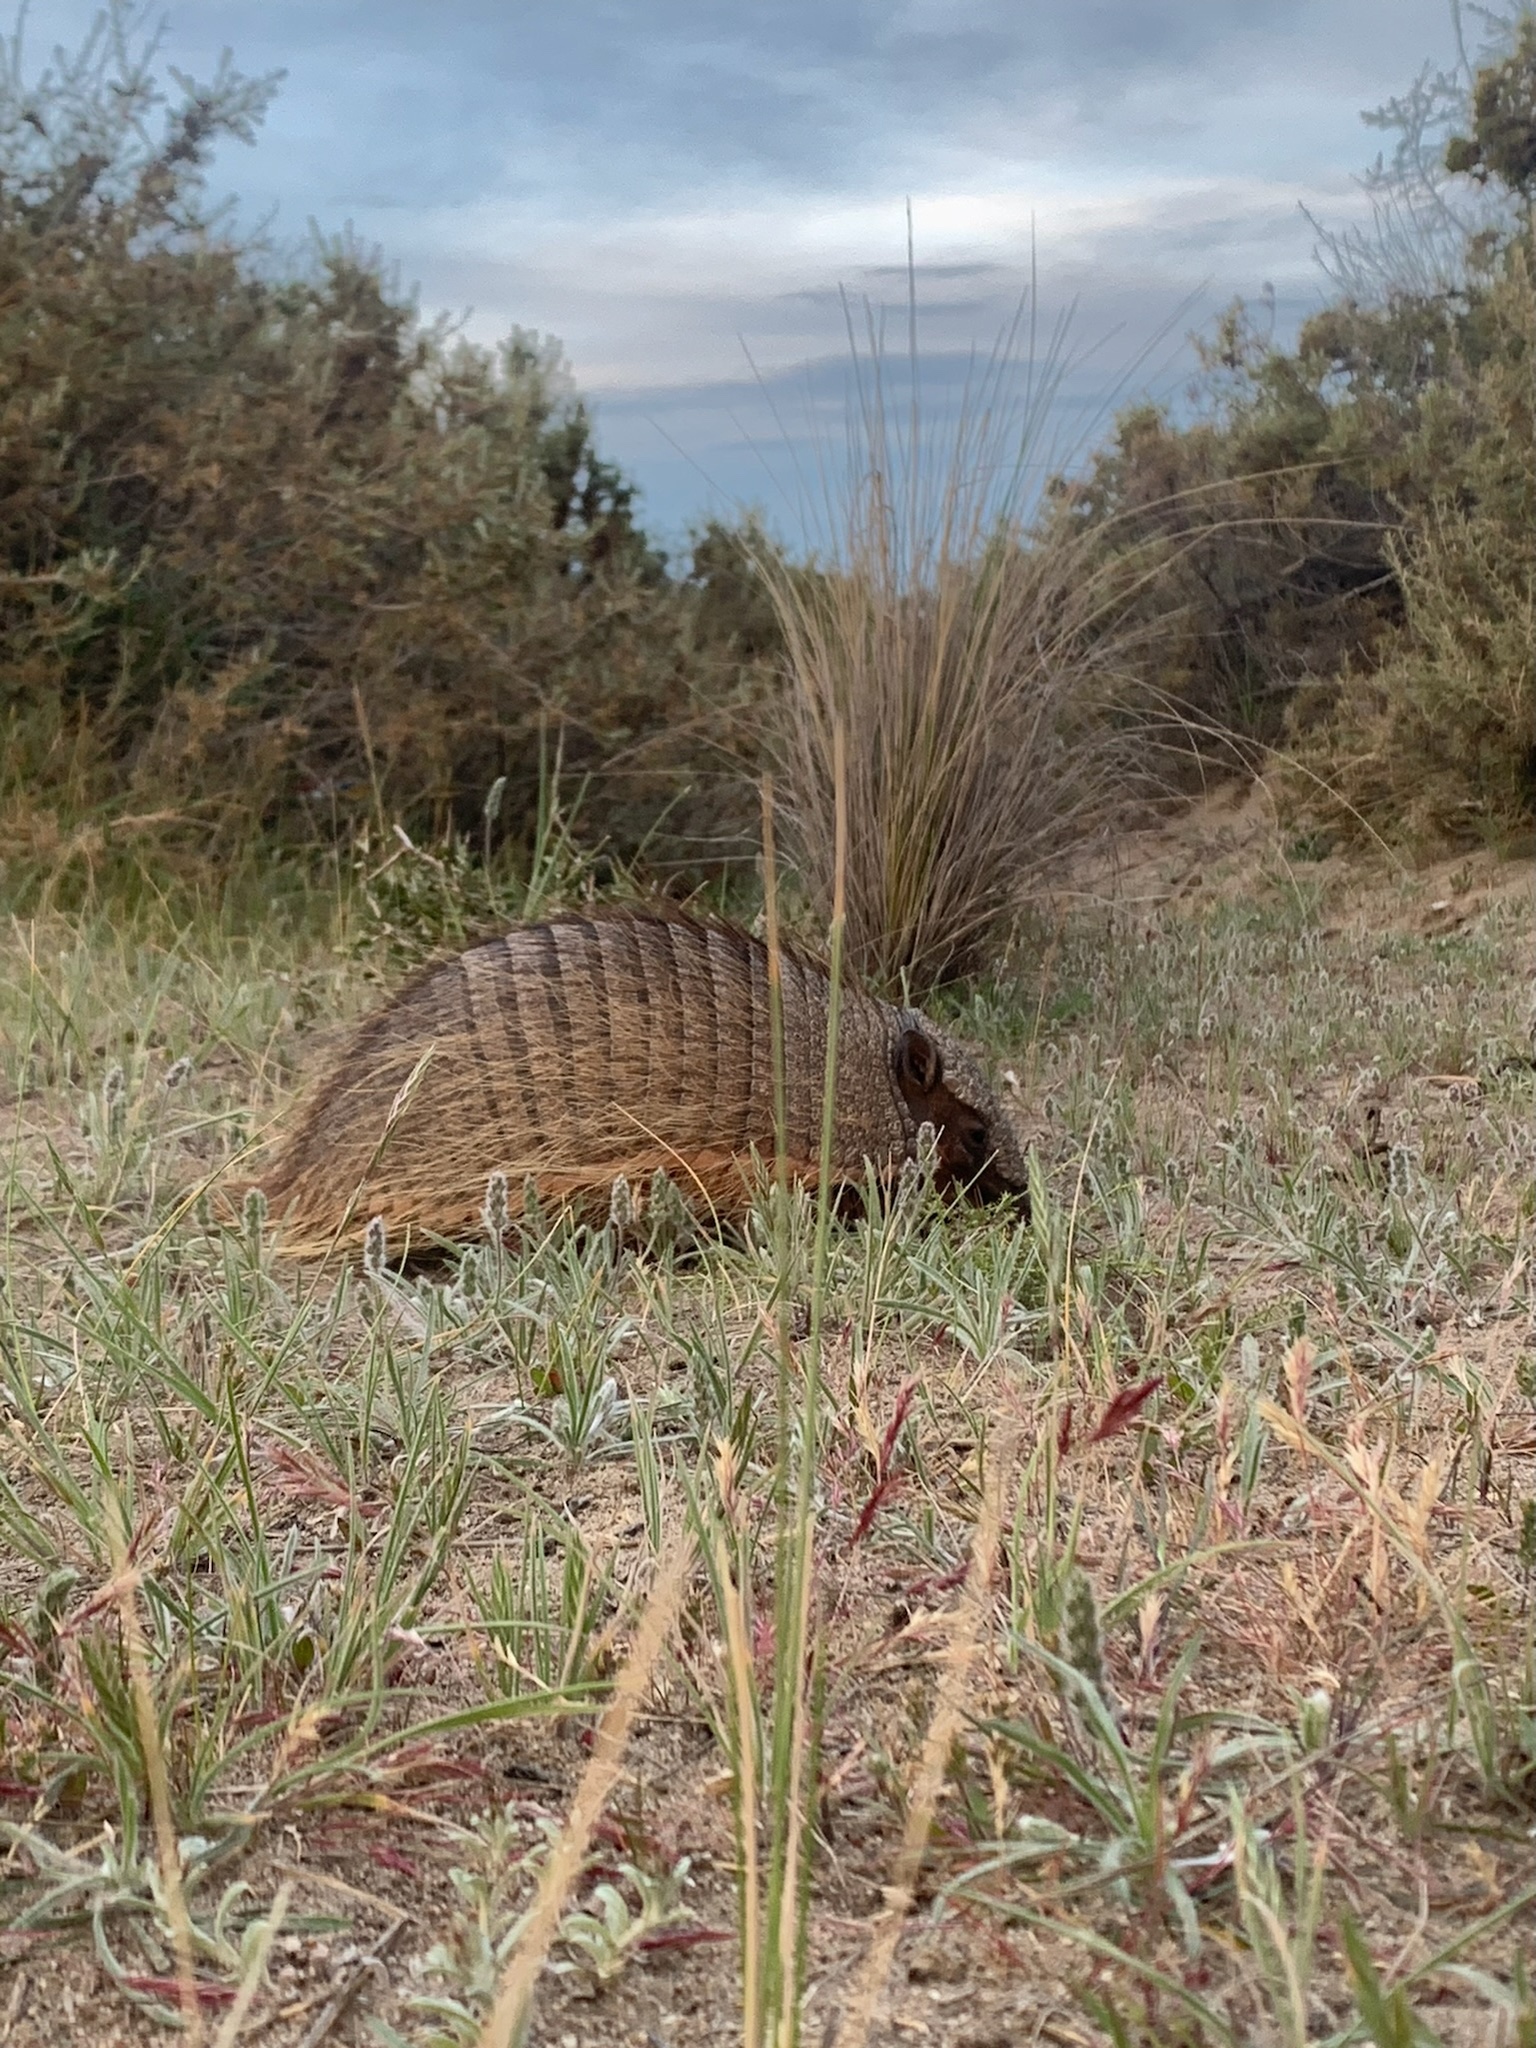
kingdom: Animalia
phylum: Chordata
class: Mammalia
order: Cingulata
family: Dasypodidae
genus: Chaetophractus
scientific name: Chaetophractus villosus
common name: Big hairy armadillo
